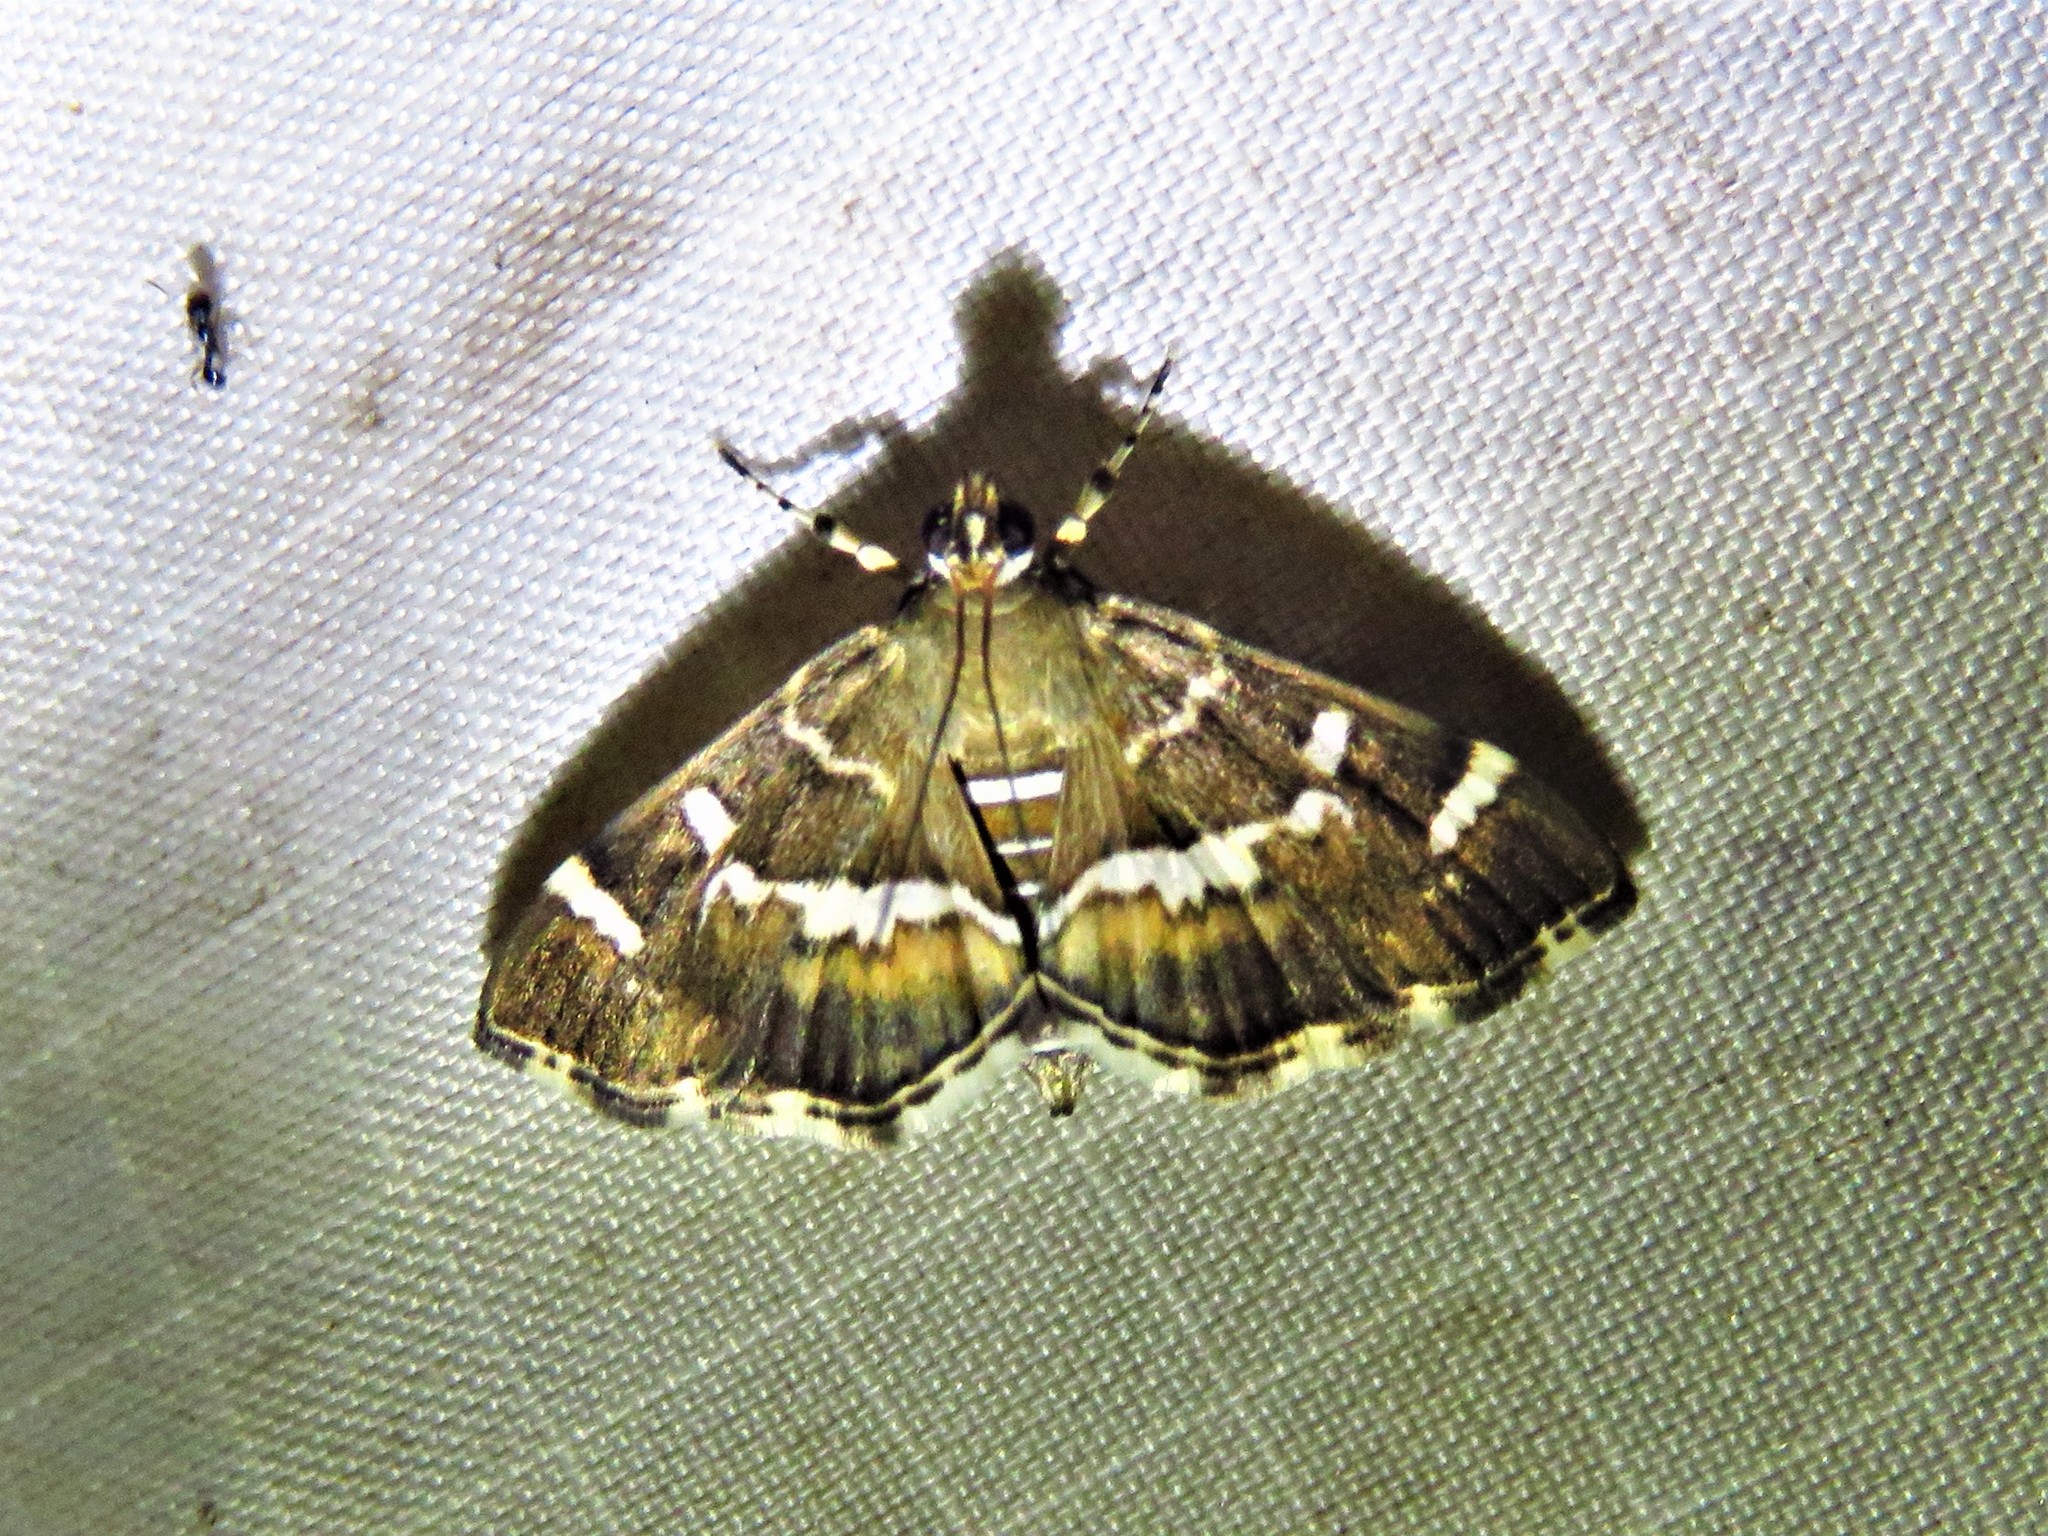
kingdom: Animalia
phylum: Arthropoda
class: Insecta
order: Lepidoptera
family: Crambidae
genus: Hymenia
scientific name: Hymenia perspectalis
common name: Spotted beet webworm
